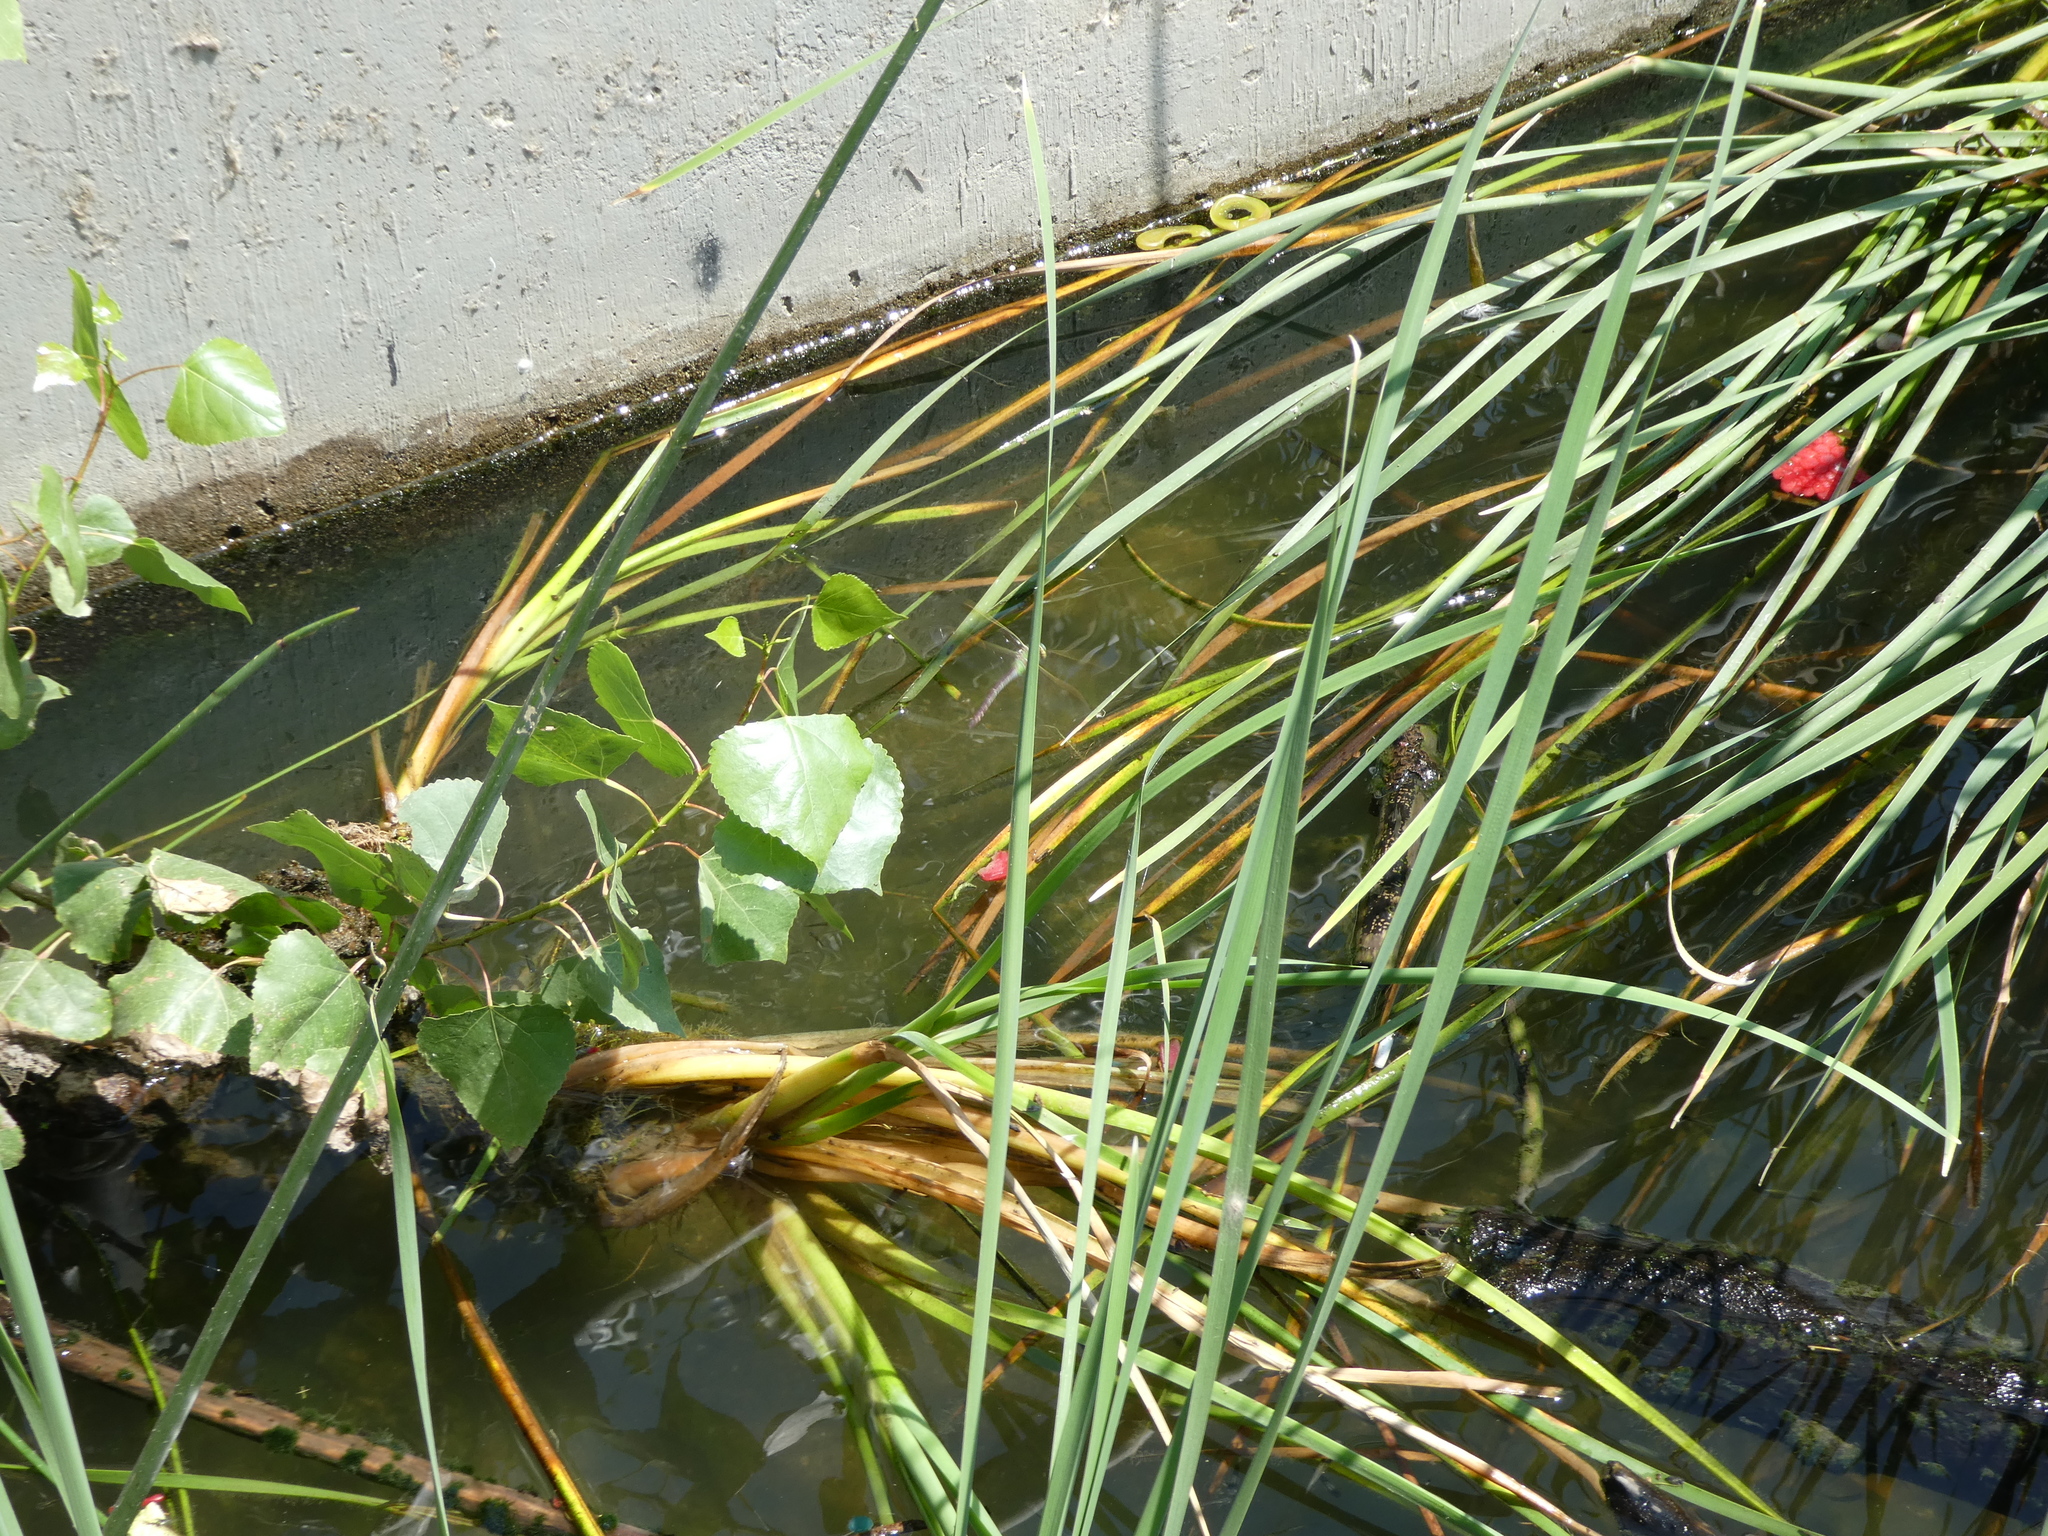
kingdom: Animalia
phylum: Arthropoda
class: Insecta
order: Odonata
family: Aeshnidae
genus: Anax
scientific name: Anax junius
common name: Common green darner
